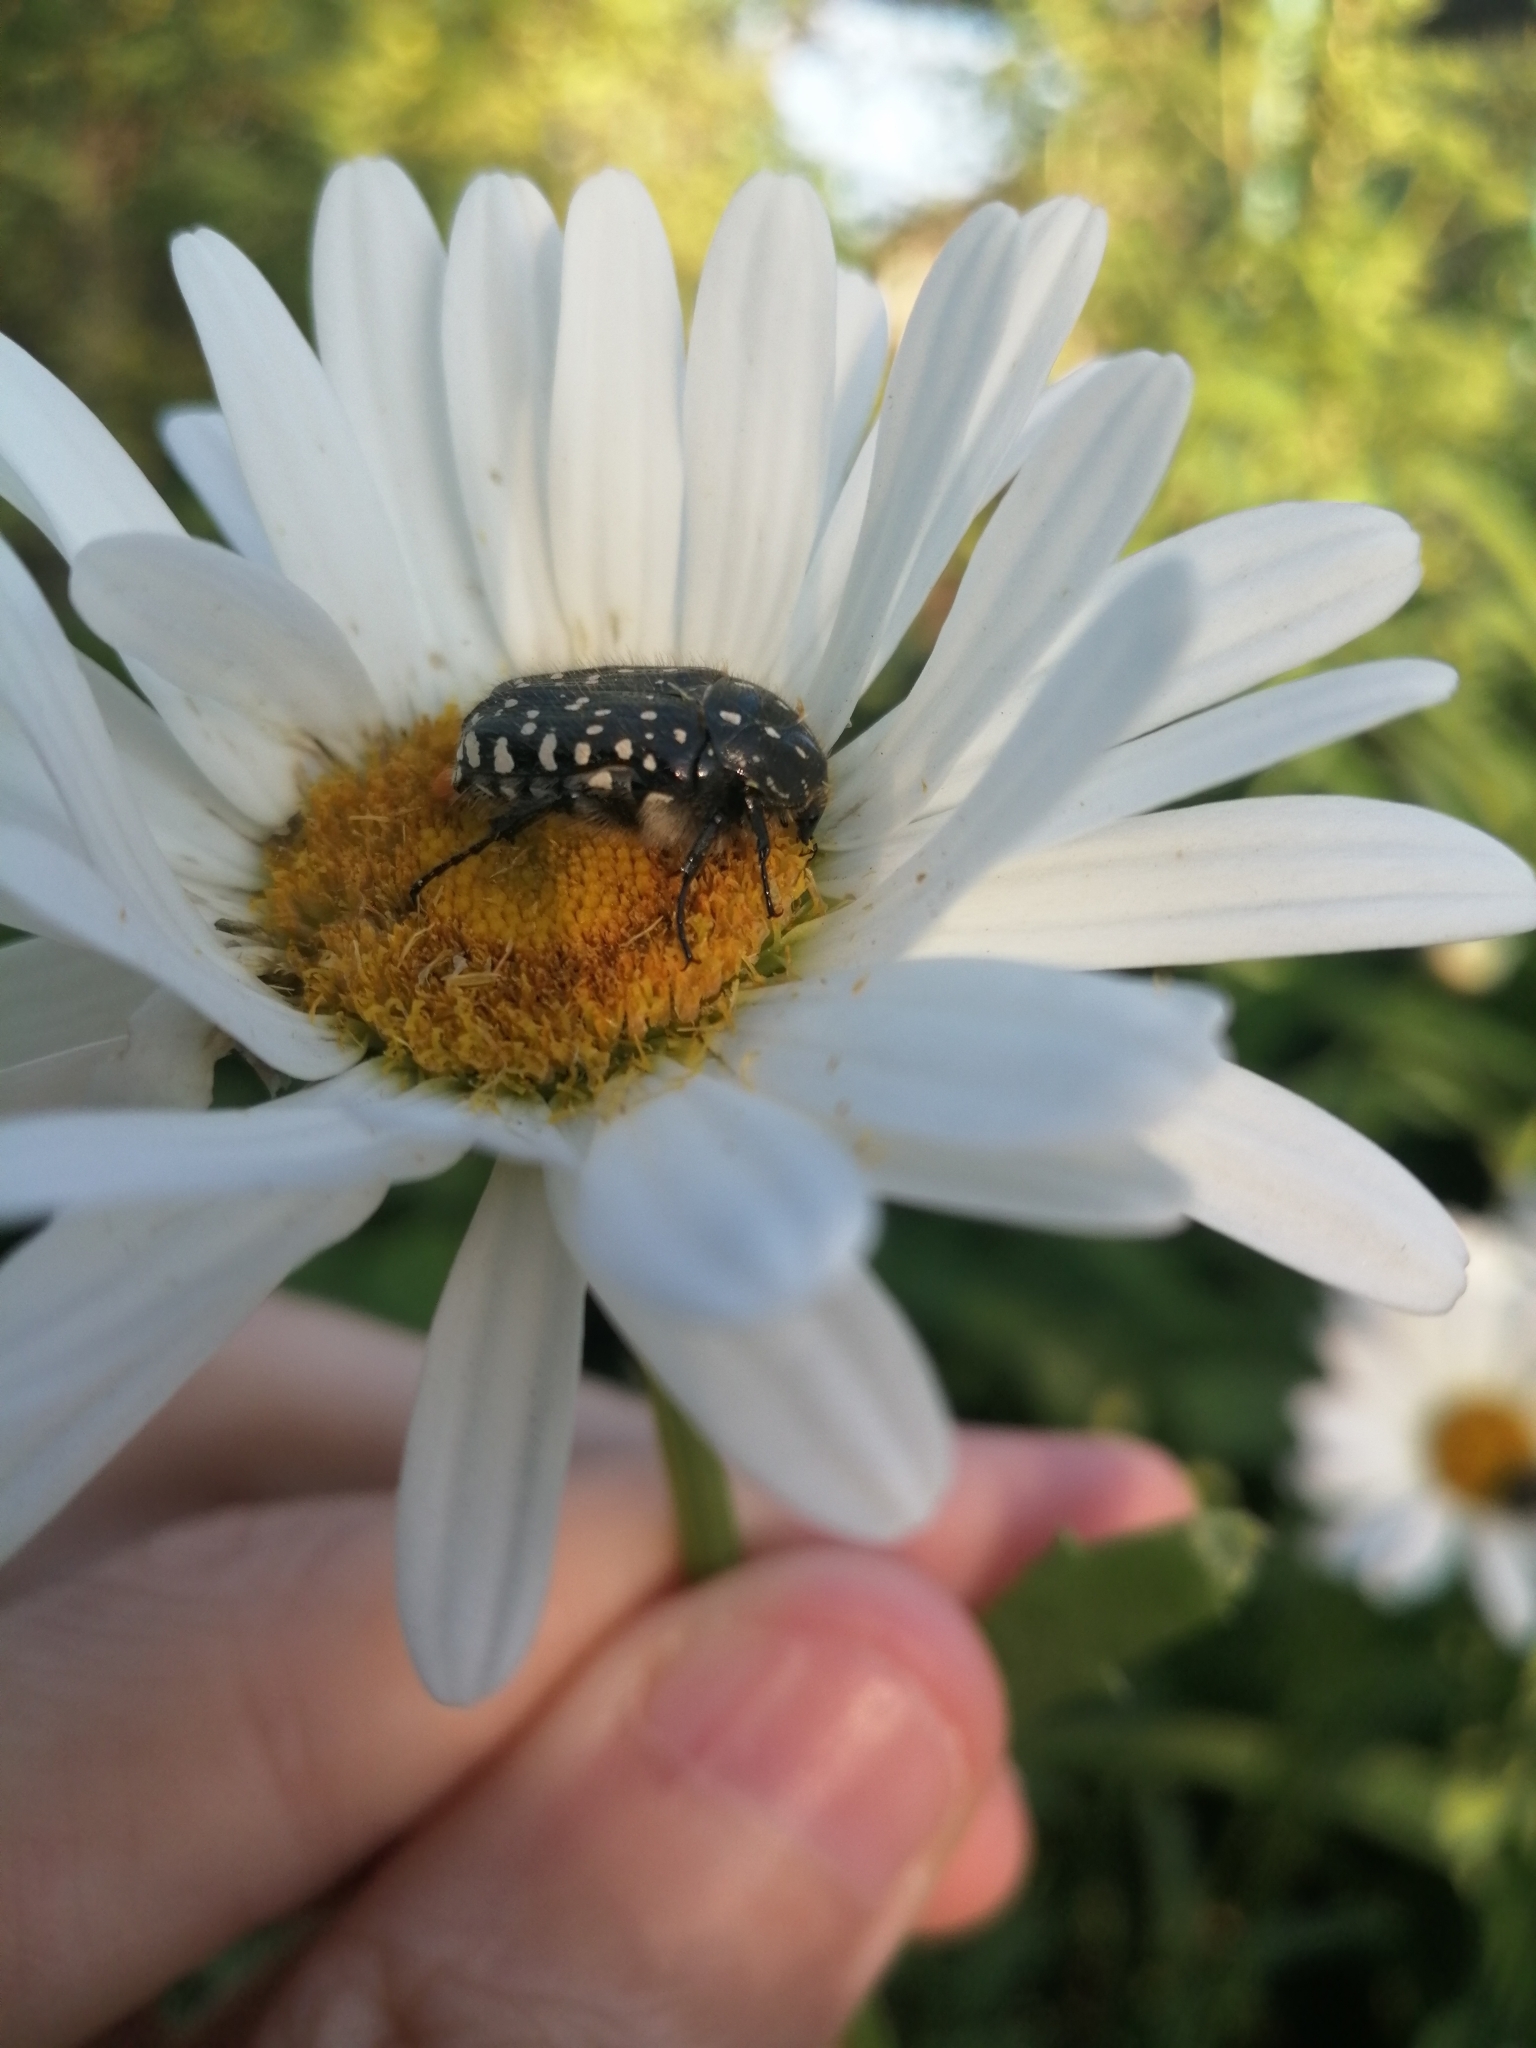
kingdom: Animalia
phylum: Arthropoda
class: Insecta
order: Coleoptera
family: Scarabaeidae
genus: Oxythyrea
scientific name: Oxythyrea funesta
